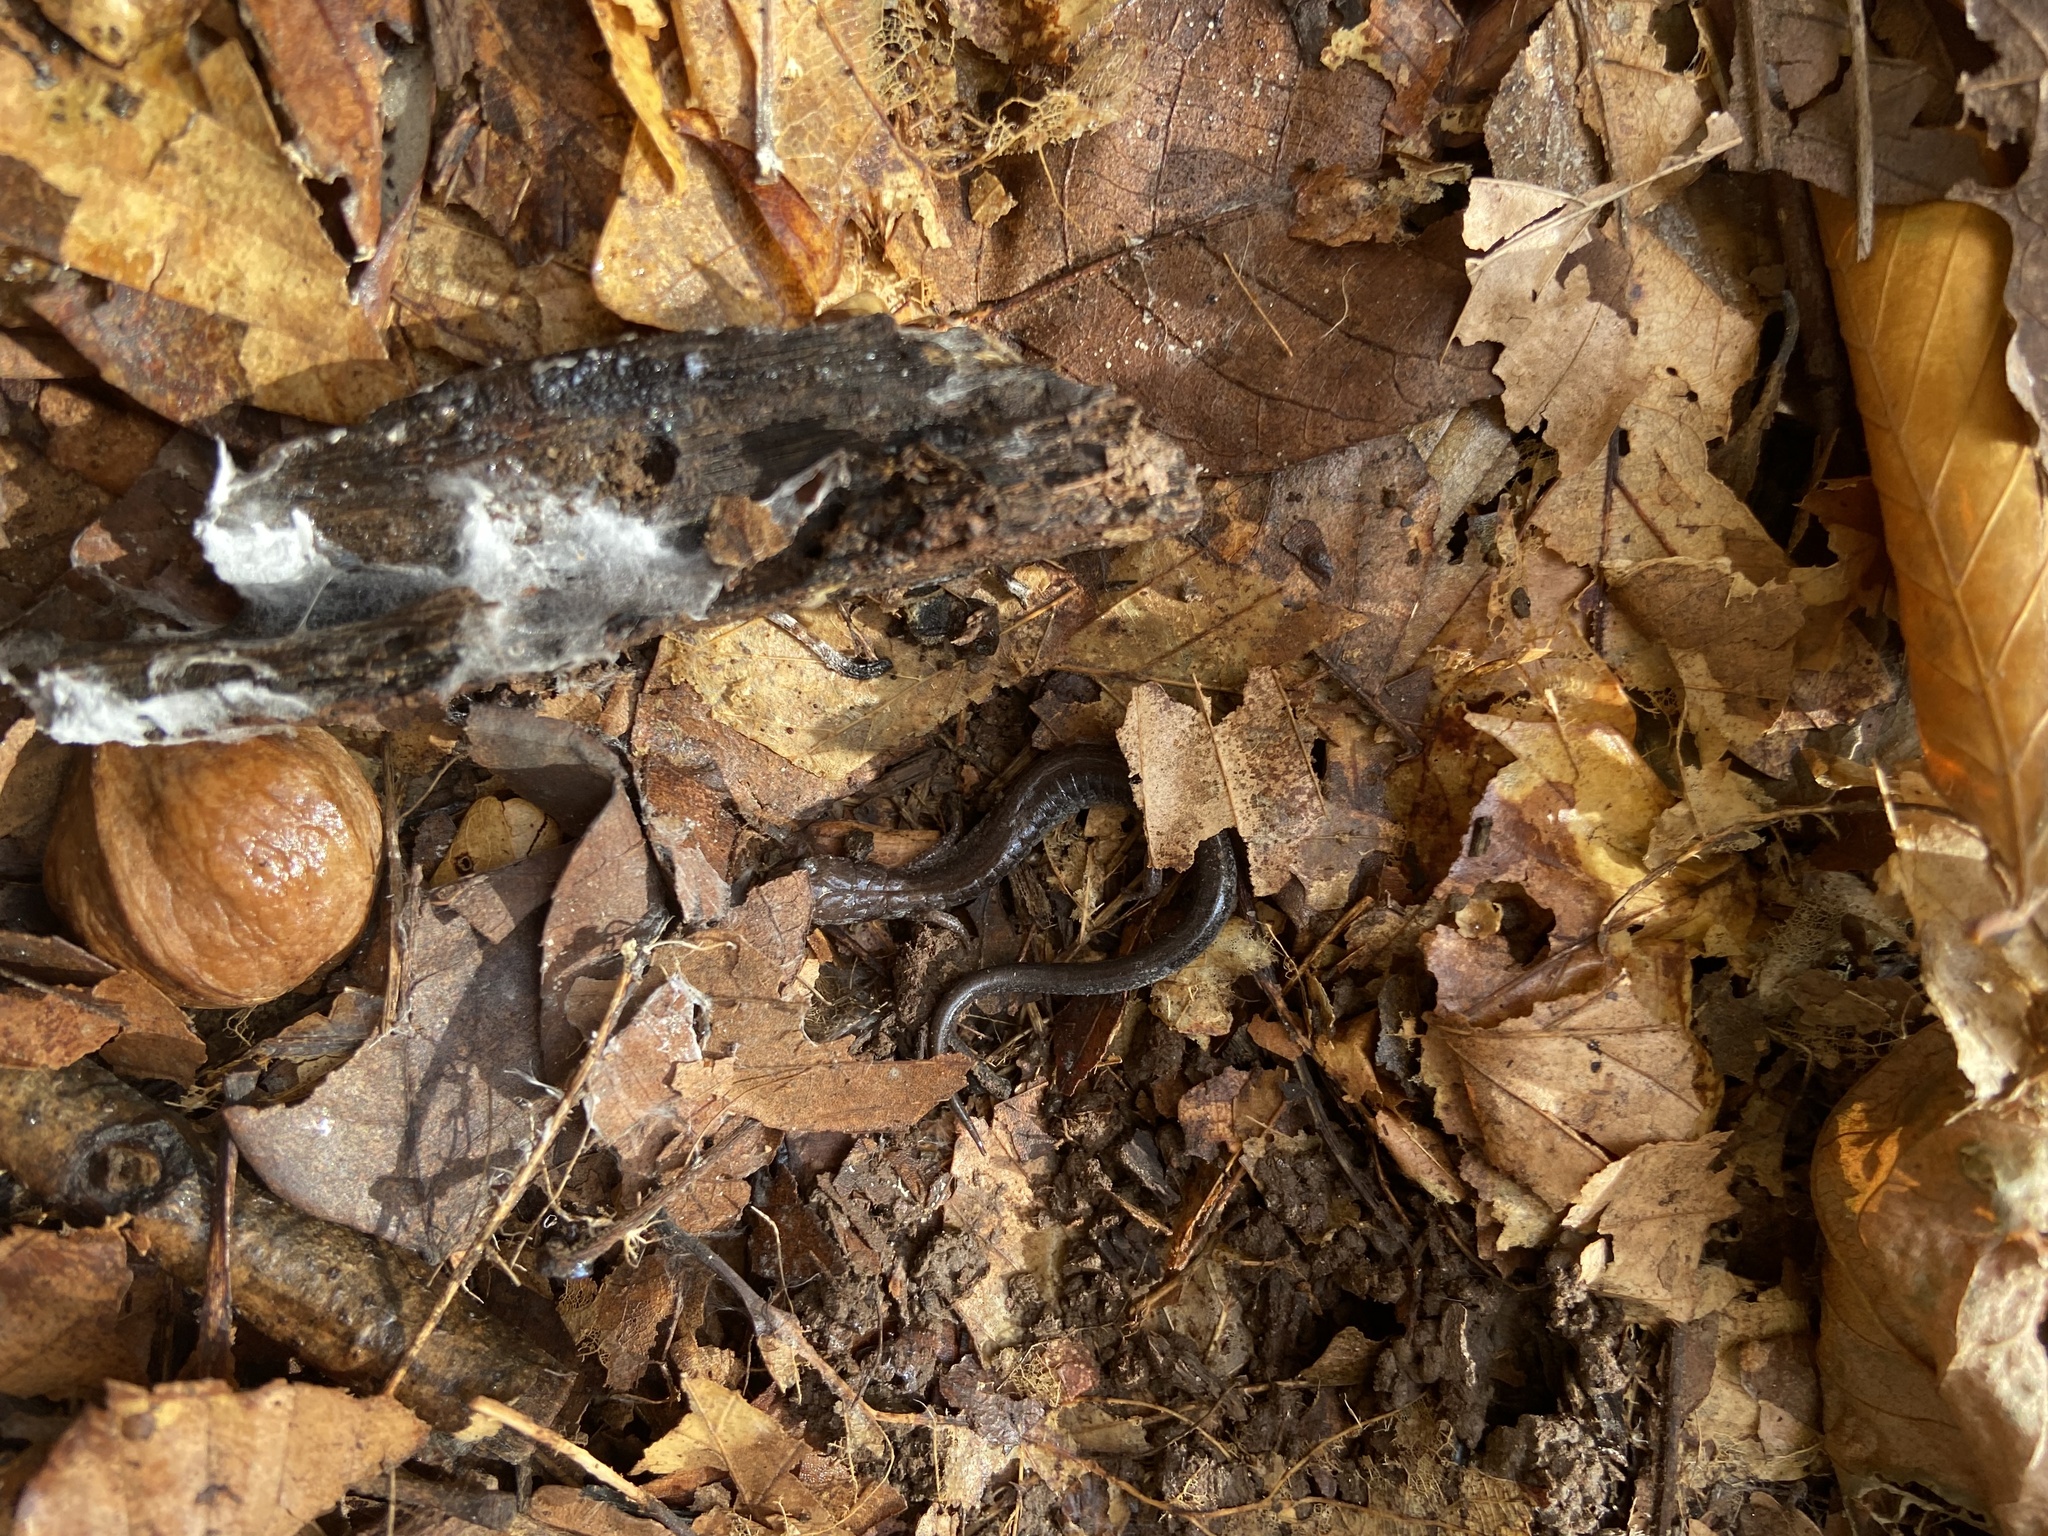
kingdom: Animalia
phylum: Chordata
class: Amphibia
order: Caudata
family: Plethodontidae
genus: Plethodon
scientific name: Plethodon cinereus
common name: Redback salamander
